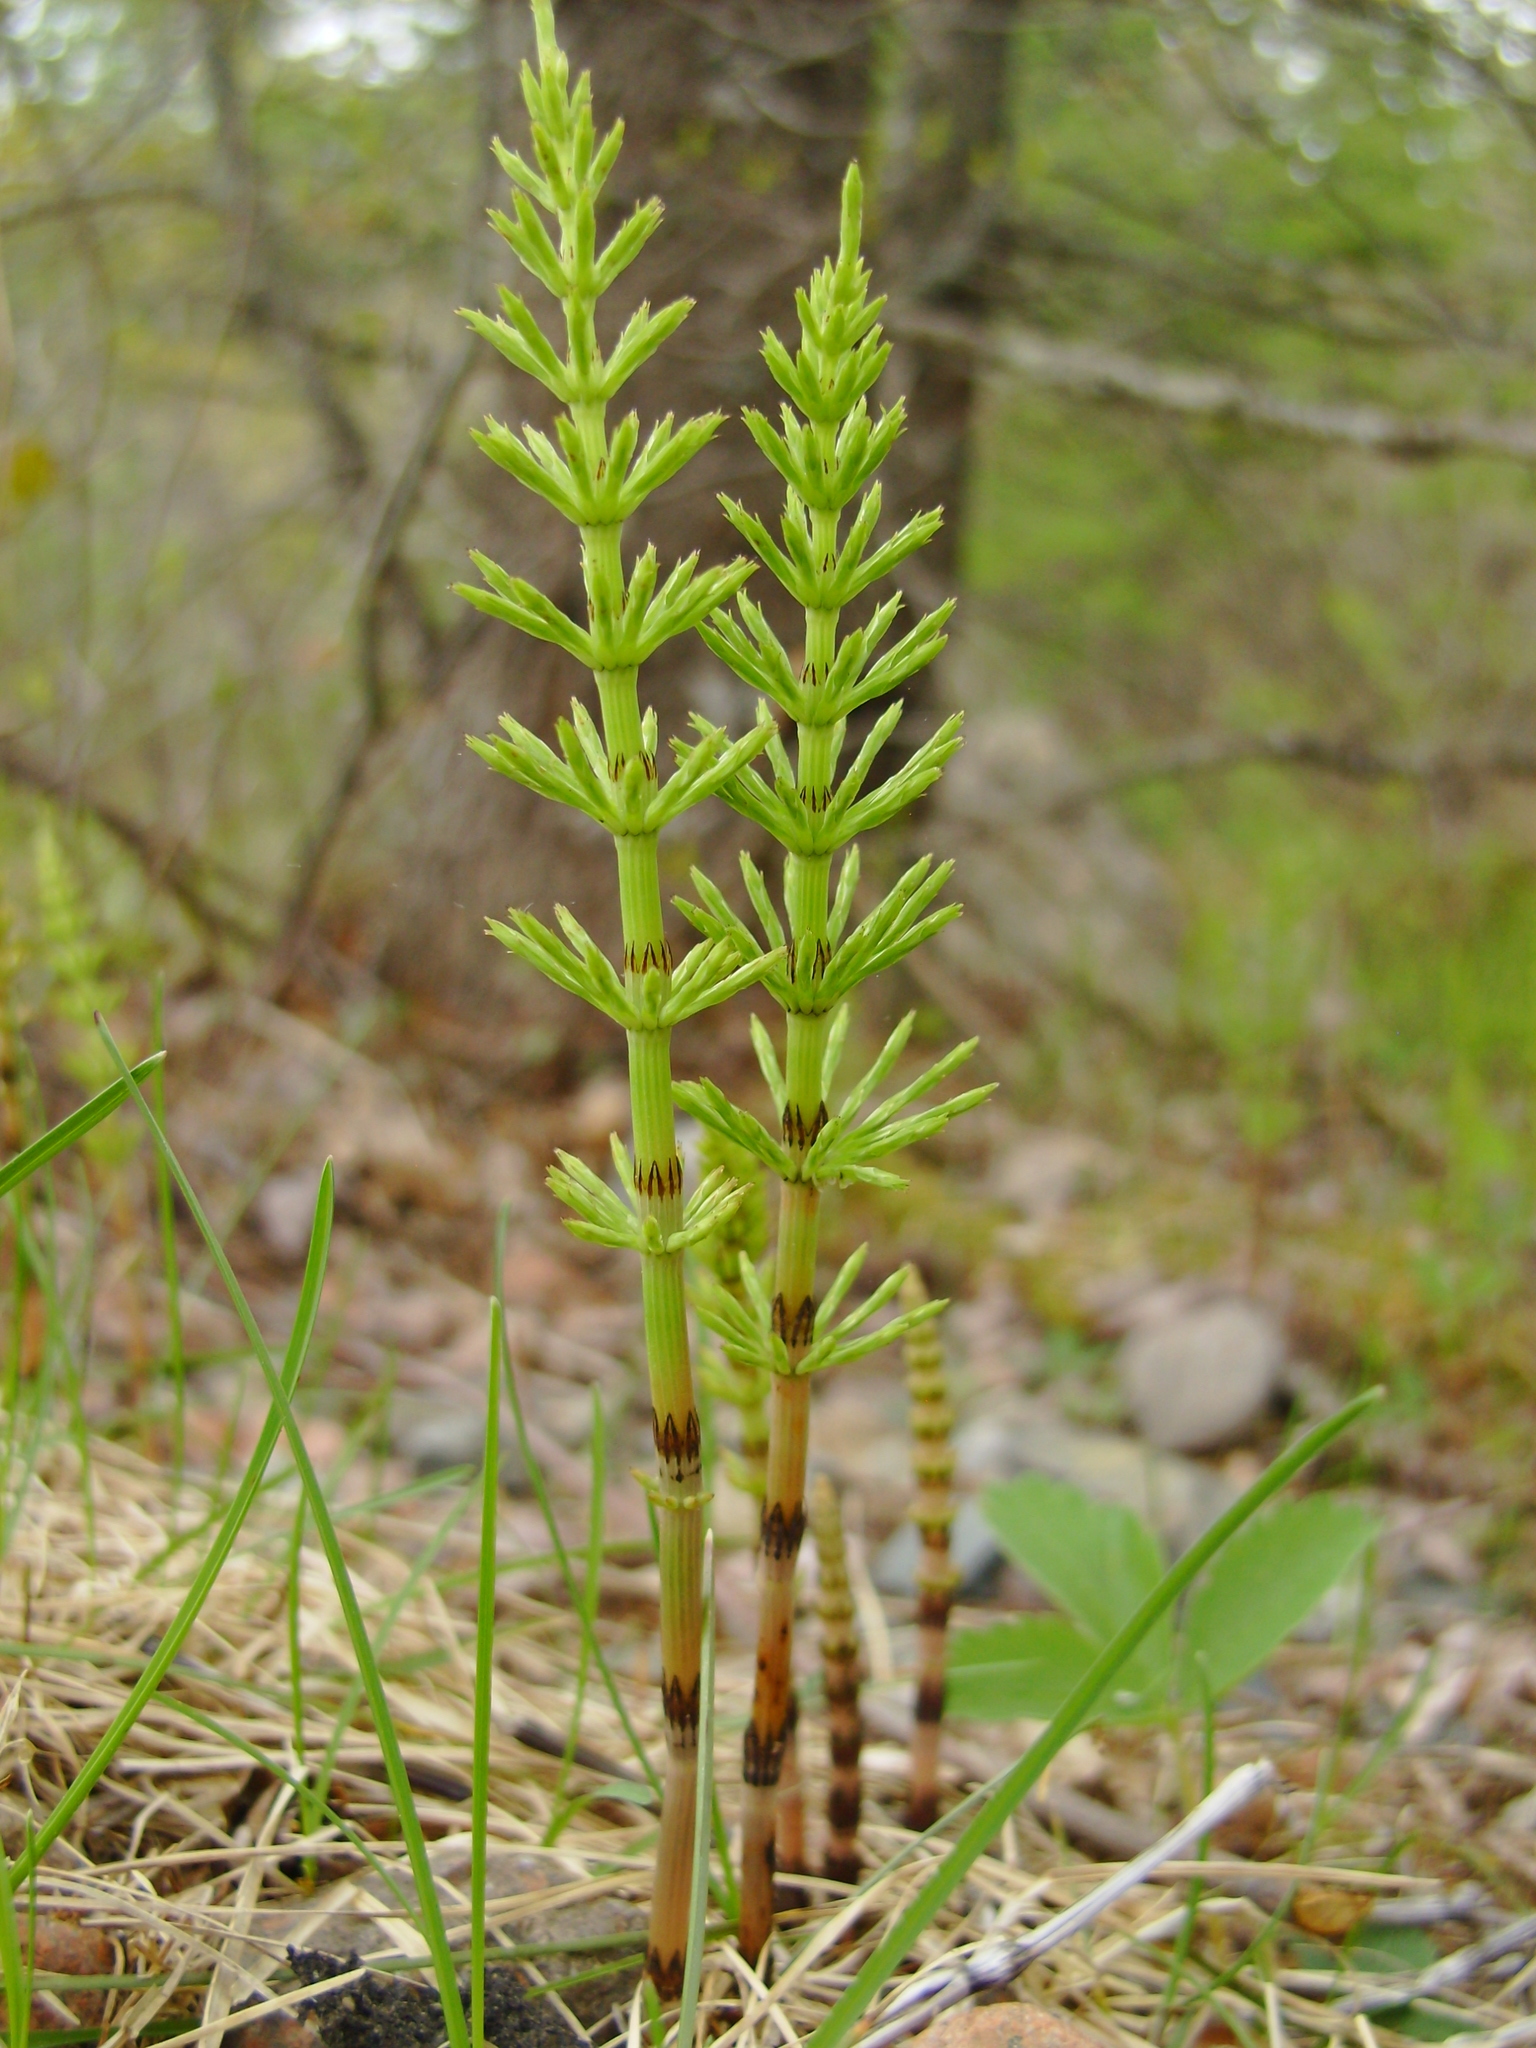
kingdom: Plantae
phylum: Tracheophyta
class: Polypodiopsida
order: Equisetales
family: Equisetaceae
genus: Equisetum
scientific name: Equisetum arvense
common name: Field horsetail
